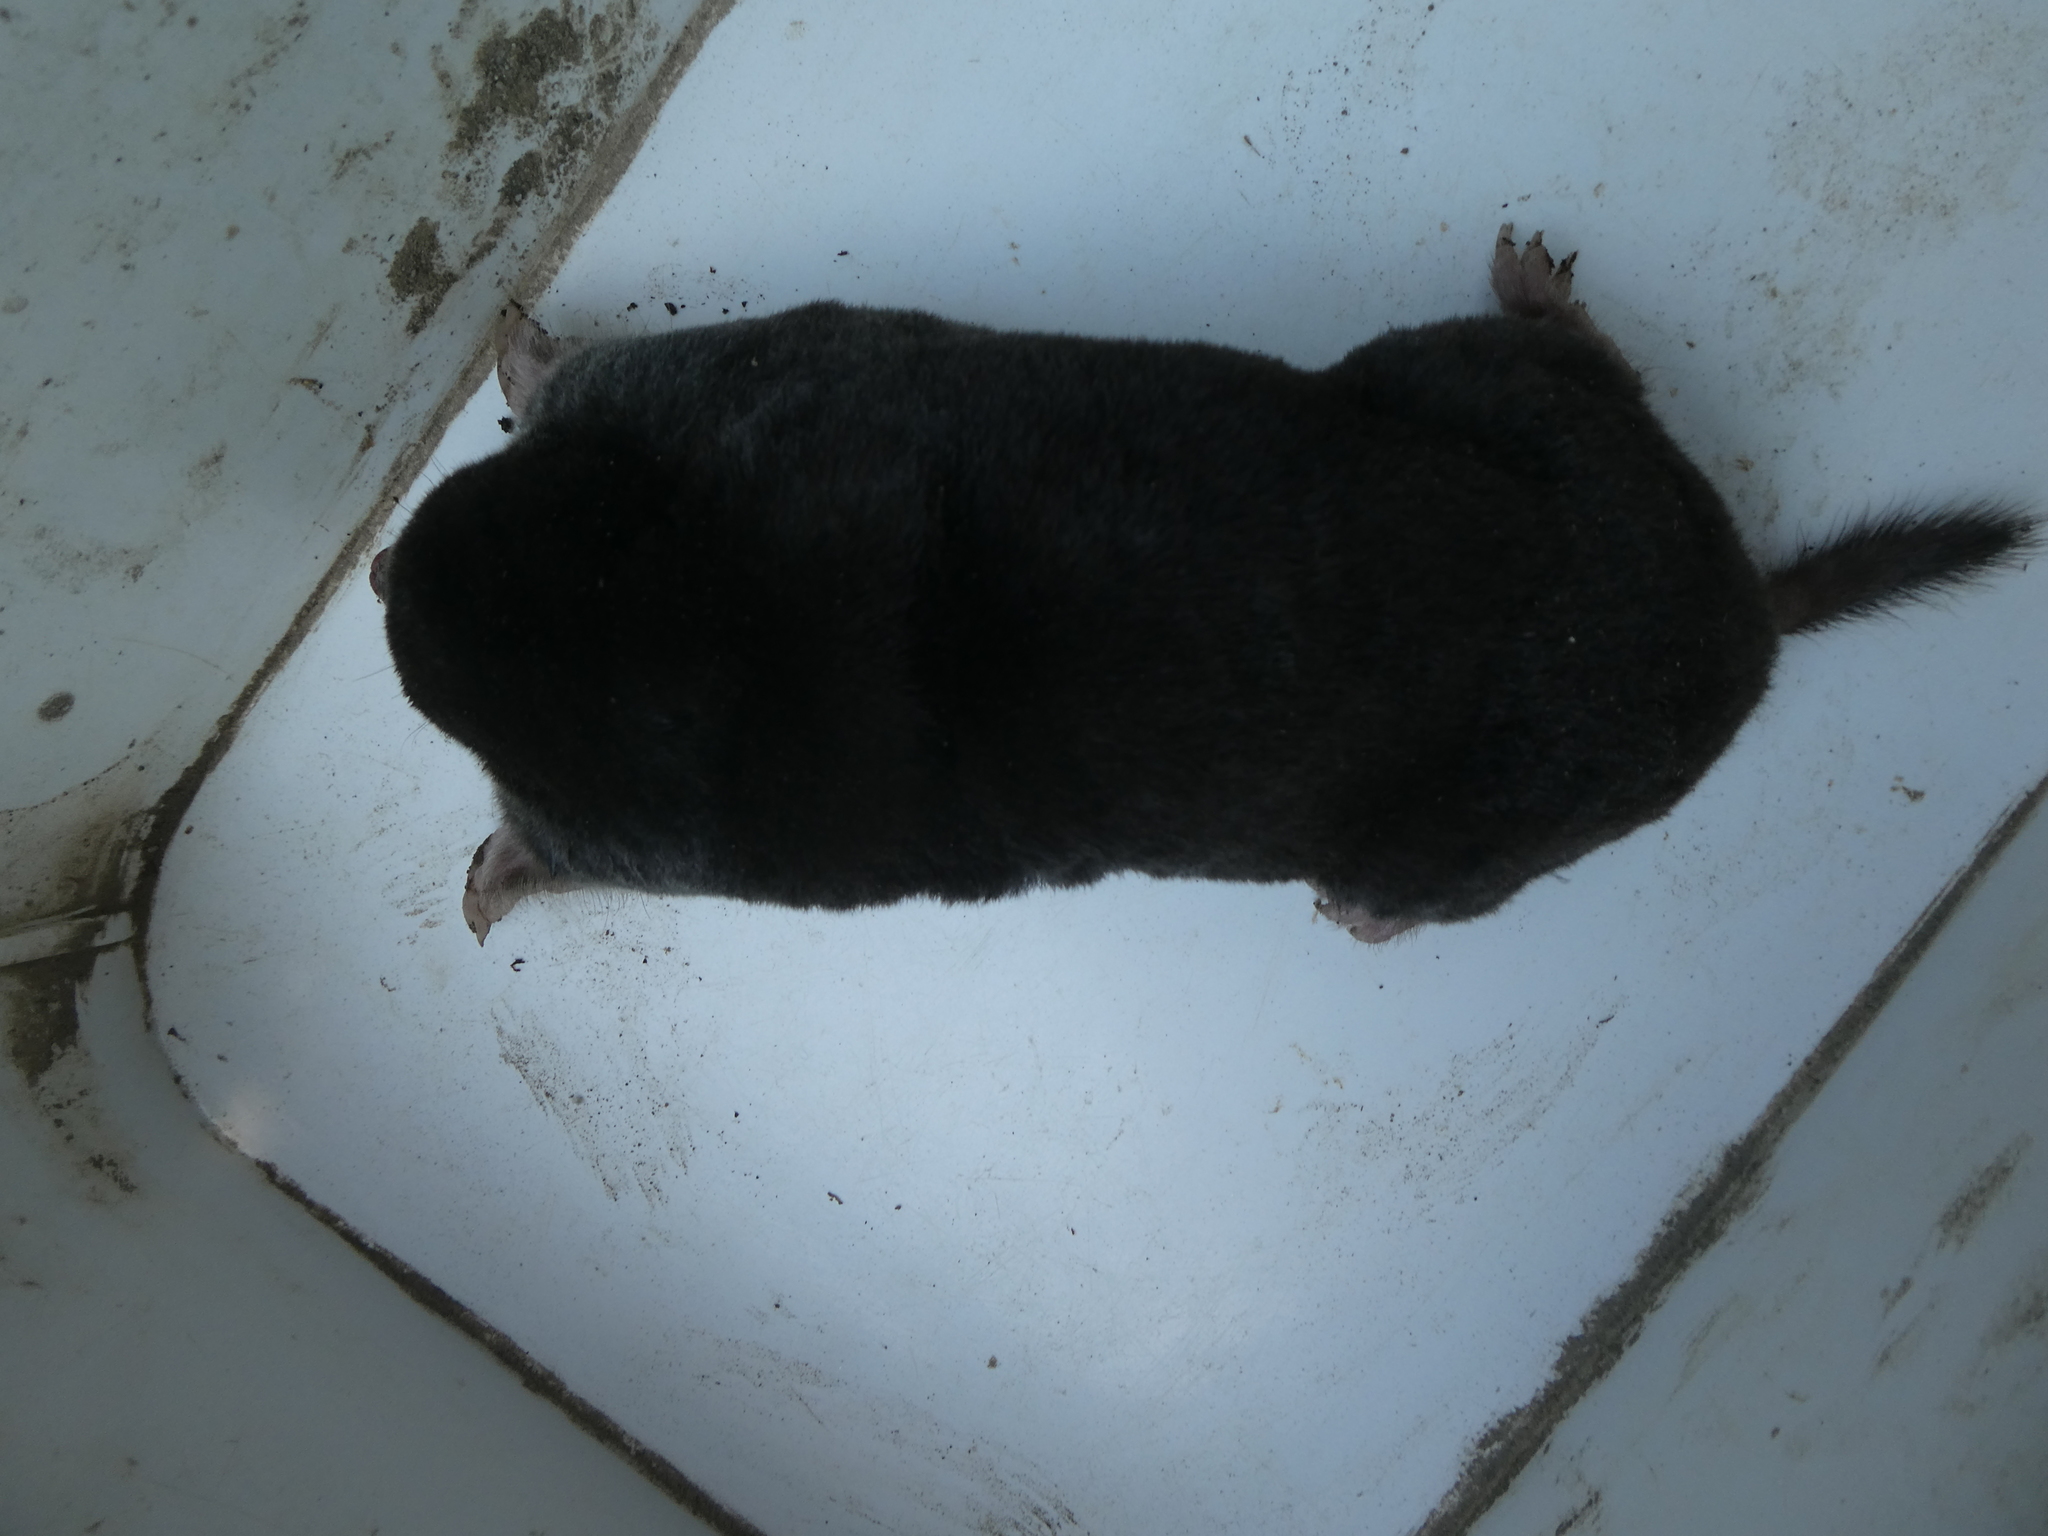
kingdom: Animalia
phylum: Chordata
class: Mammalia
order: Soricomorpha
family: Talpidae
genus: Talpa
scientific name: Talpa europaea
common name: European mole
